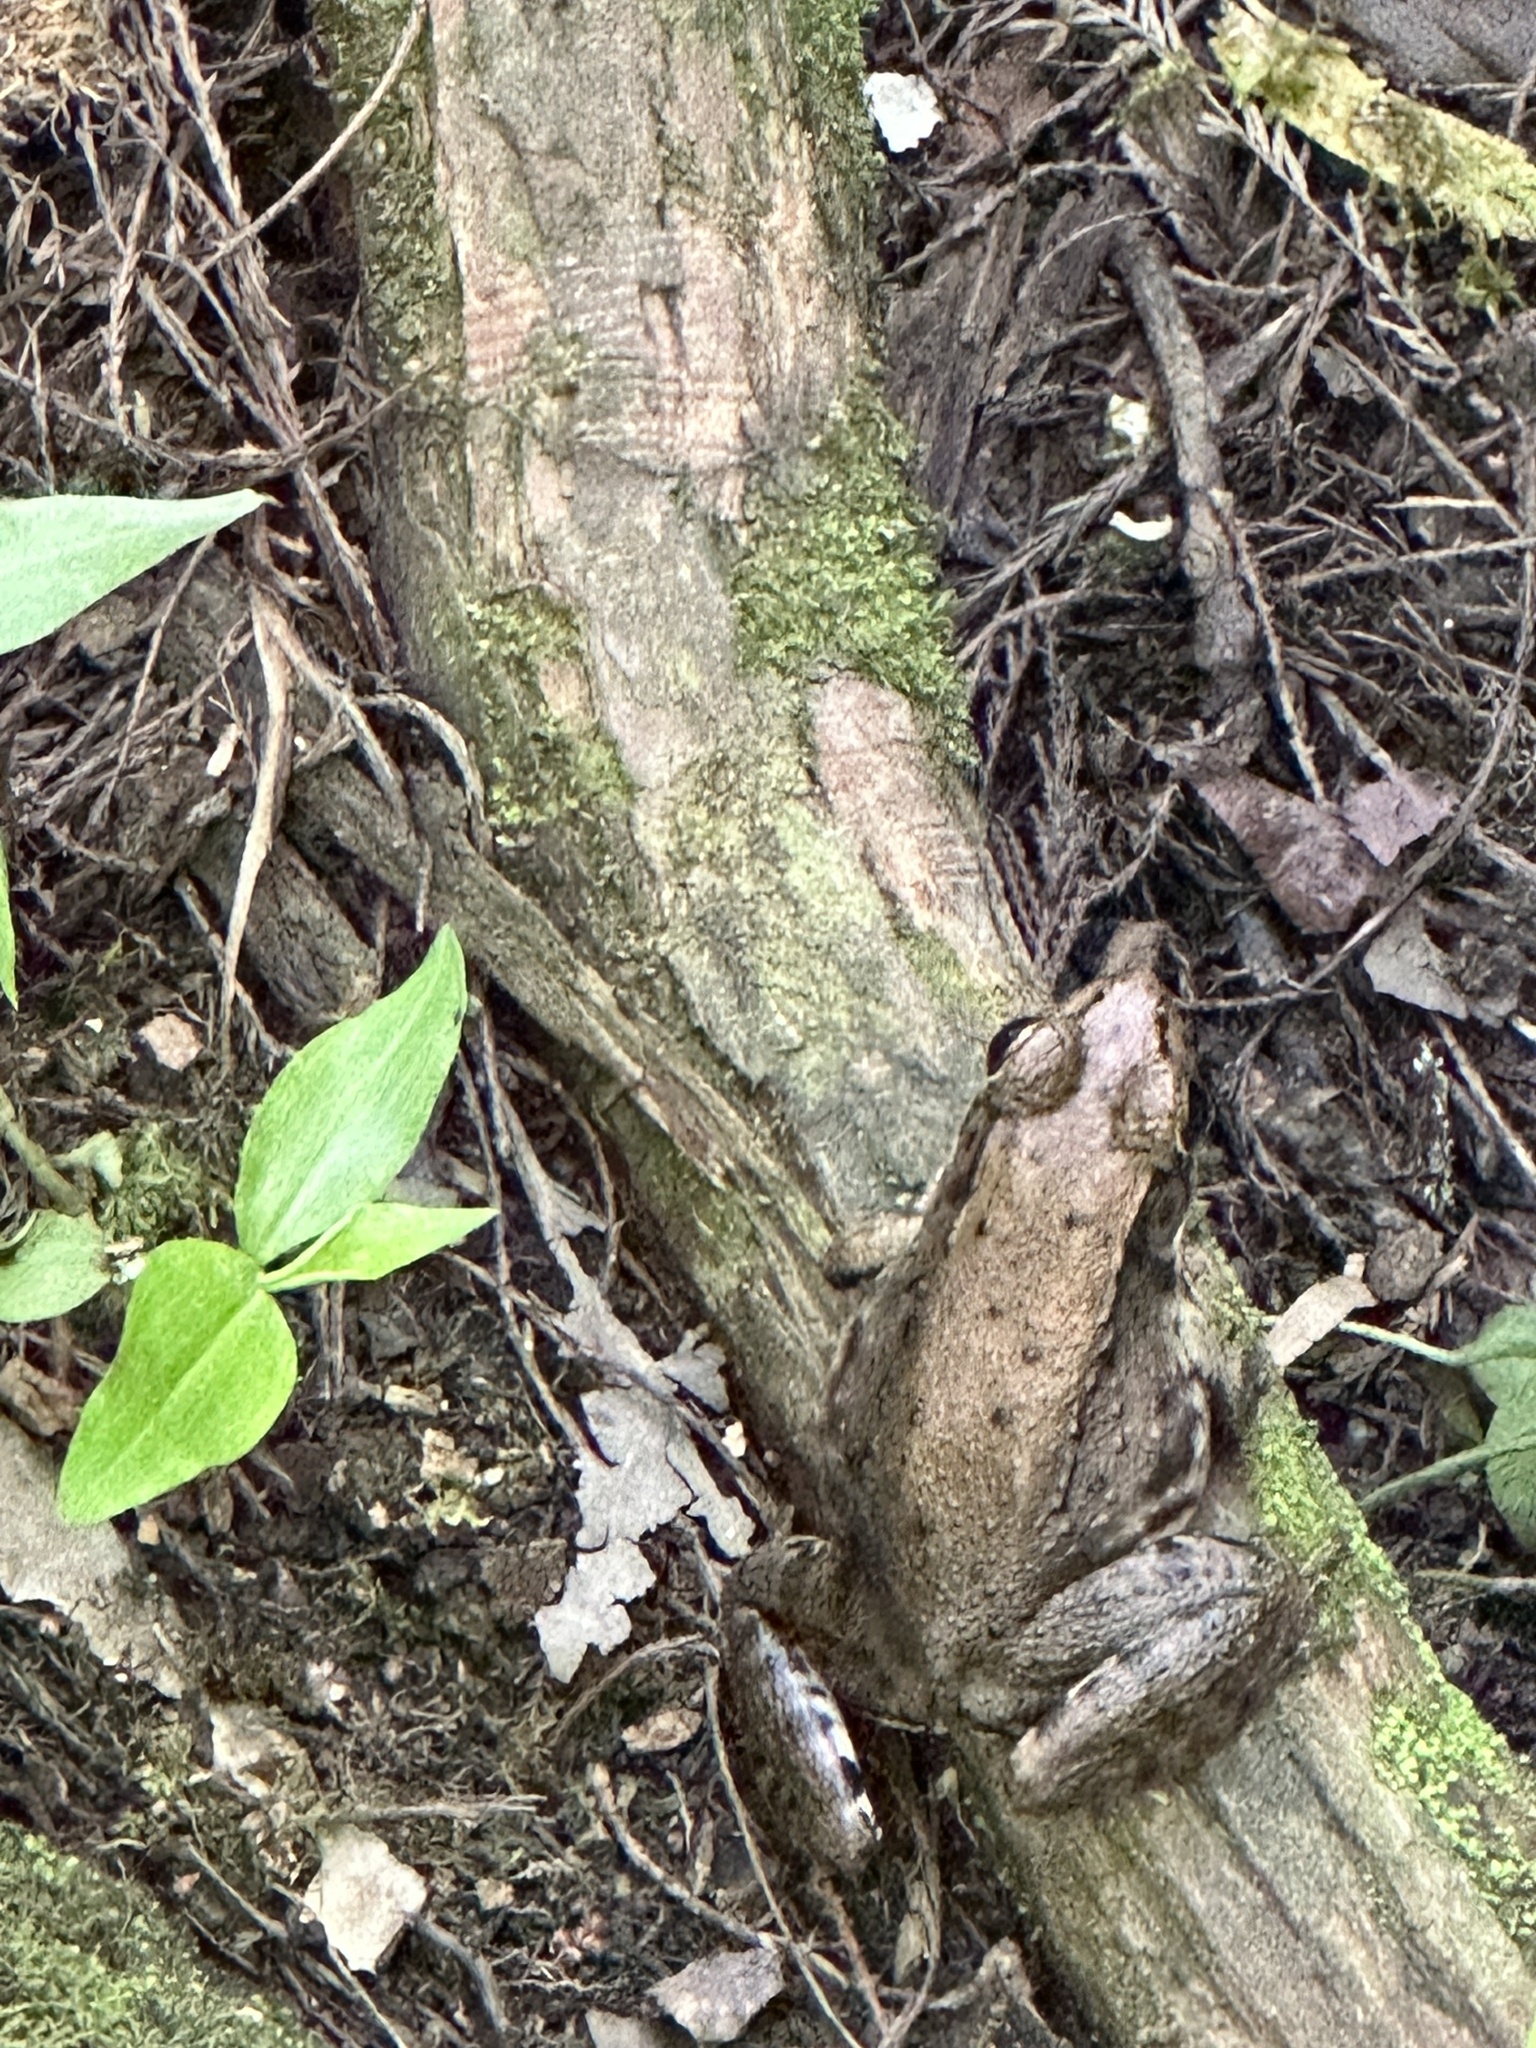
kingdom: Animalia
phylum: Chordata
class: Amphibia
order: Anura
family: Ranidae
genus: Lithobates
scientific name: Lithobates clamitans
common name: Green frog
